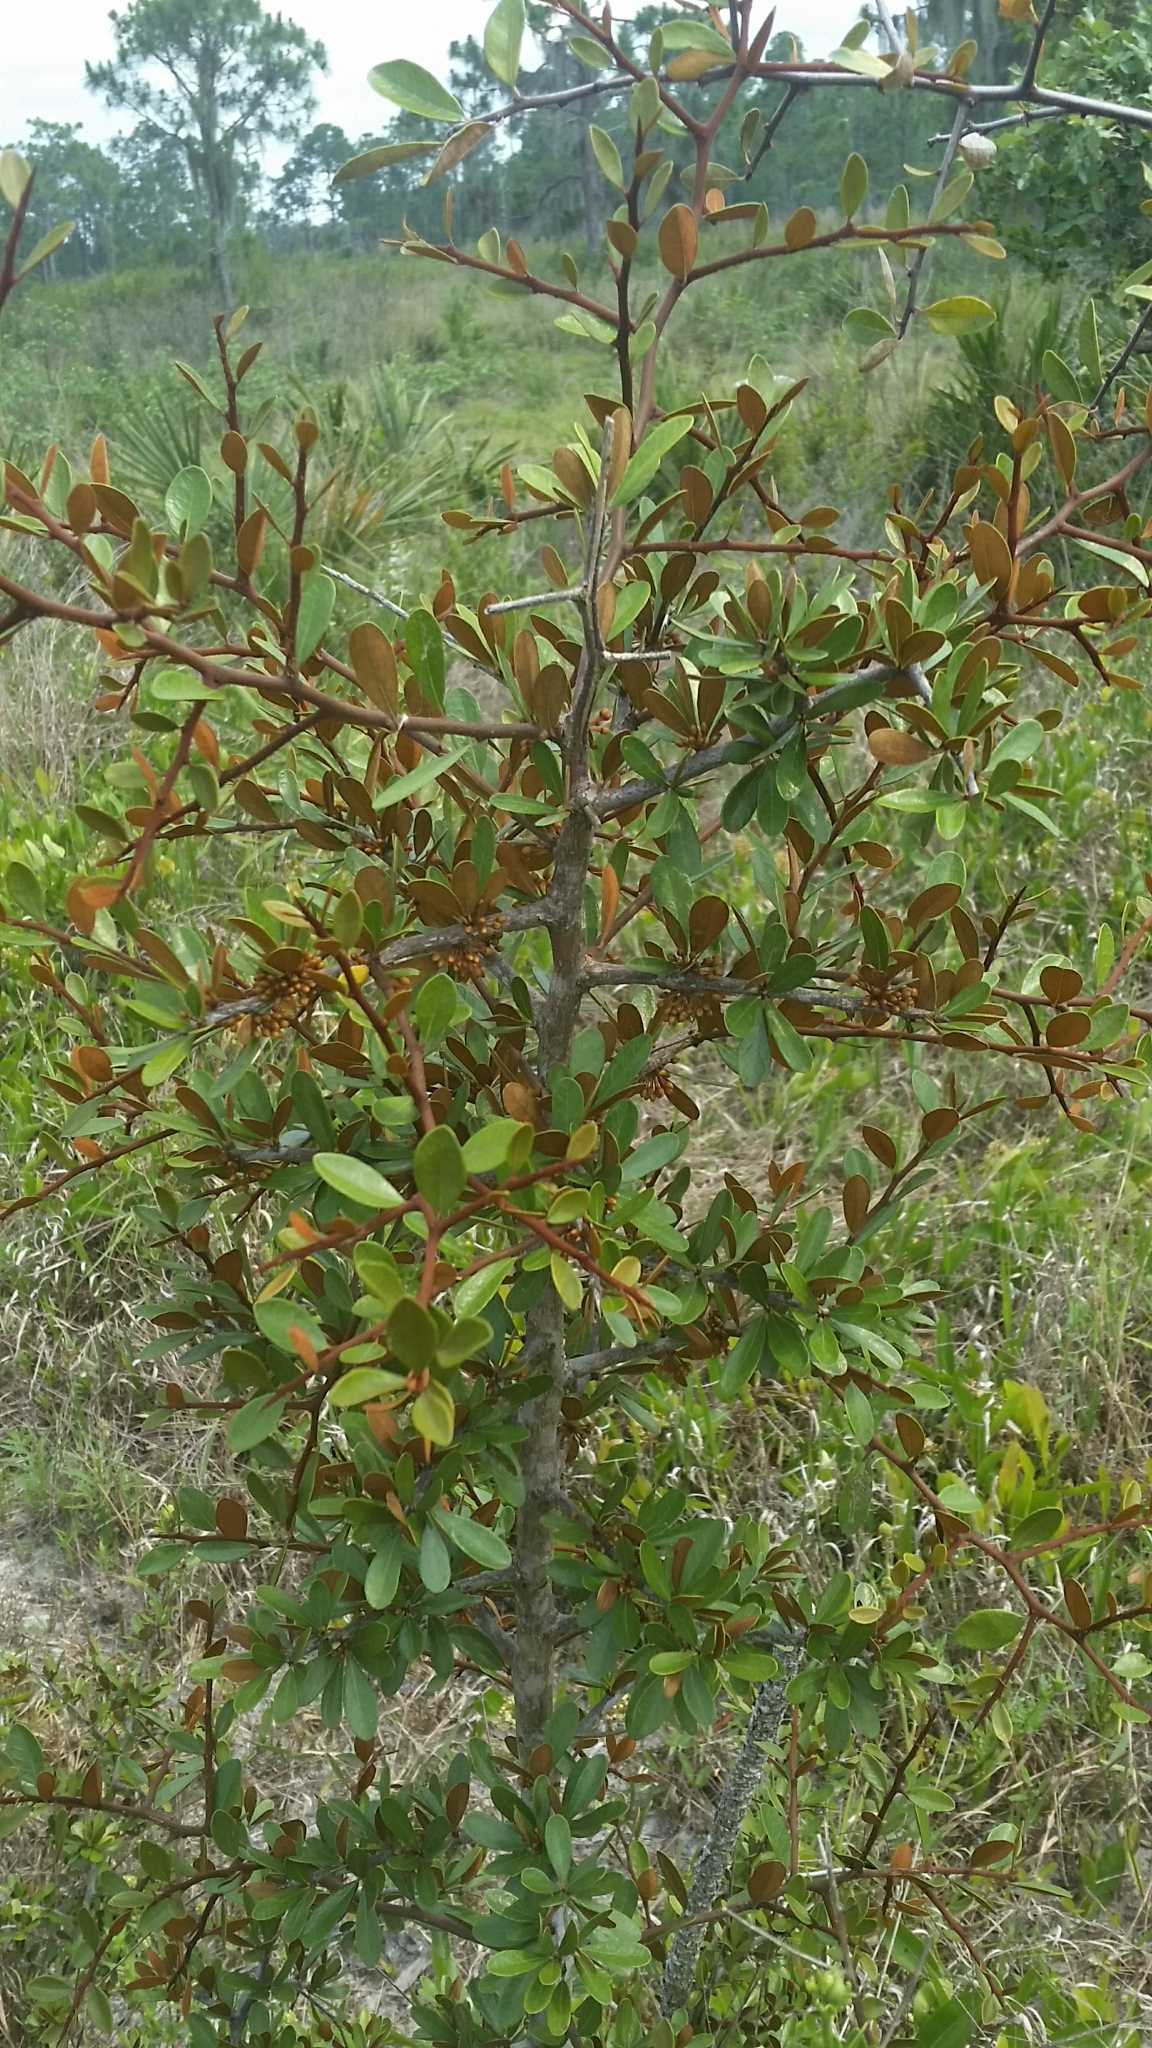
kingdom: Plantae
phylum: Tracheophyta
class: Magnoliopsida
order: Ericales
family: Sapotaceae
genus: Sideroxylon
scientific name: Sideroxylon tenax
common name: Tough-buckthorn
